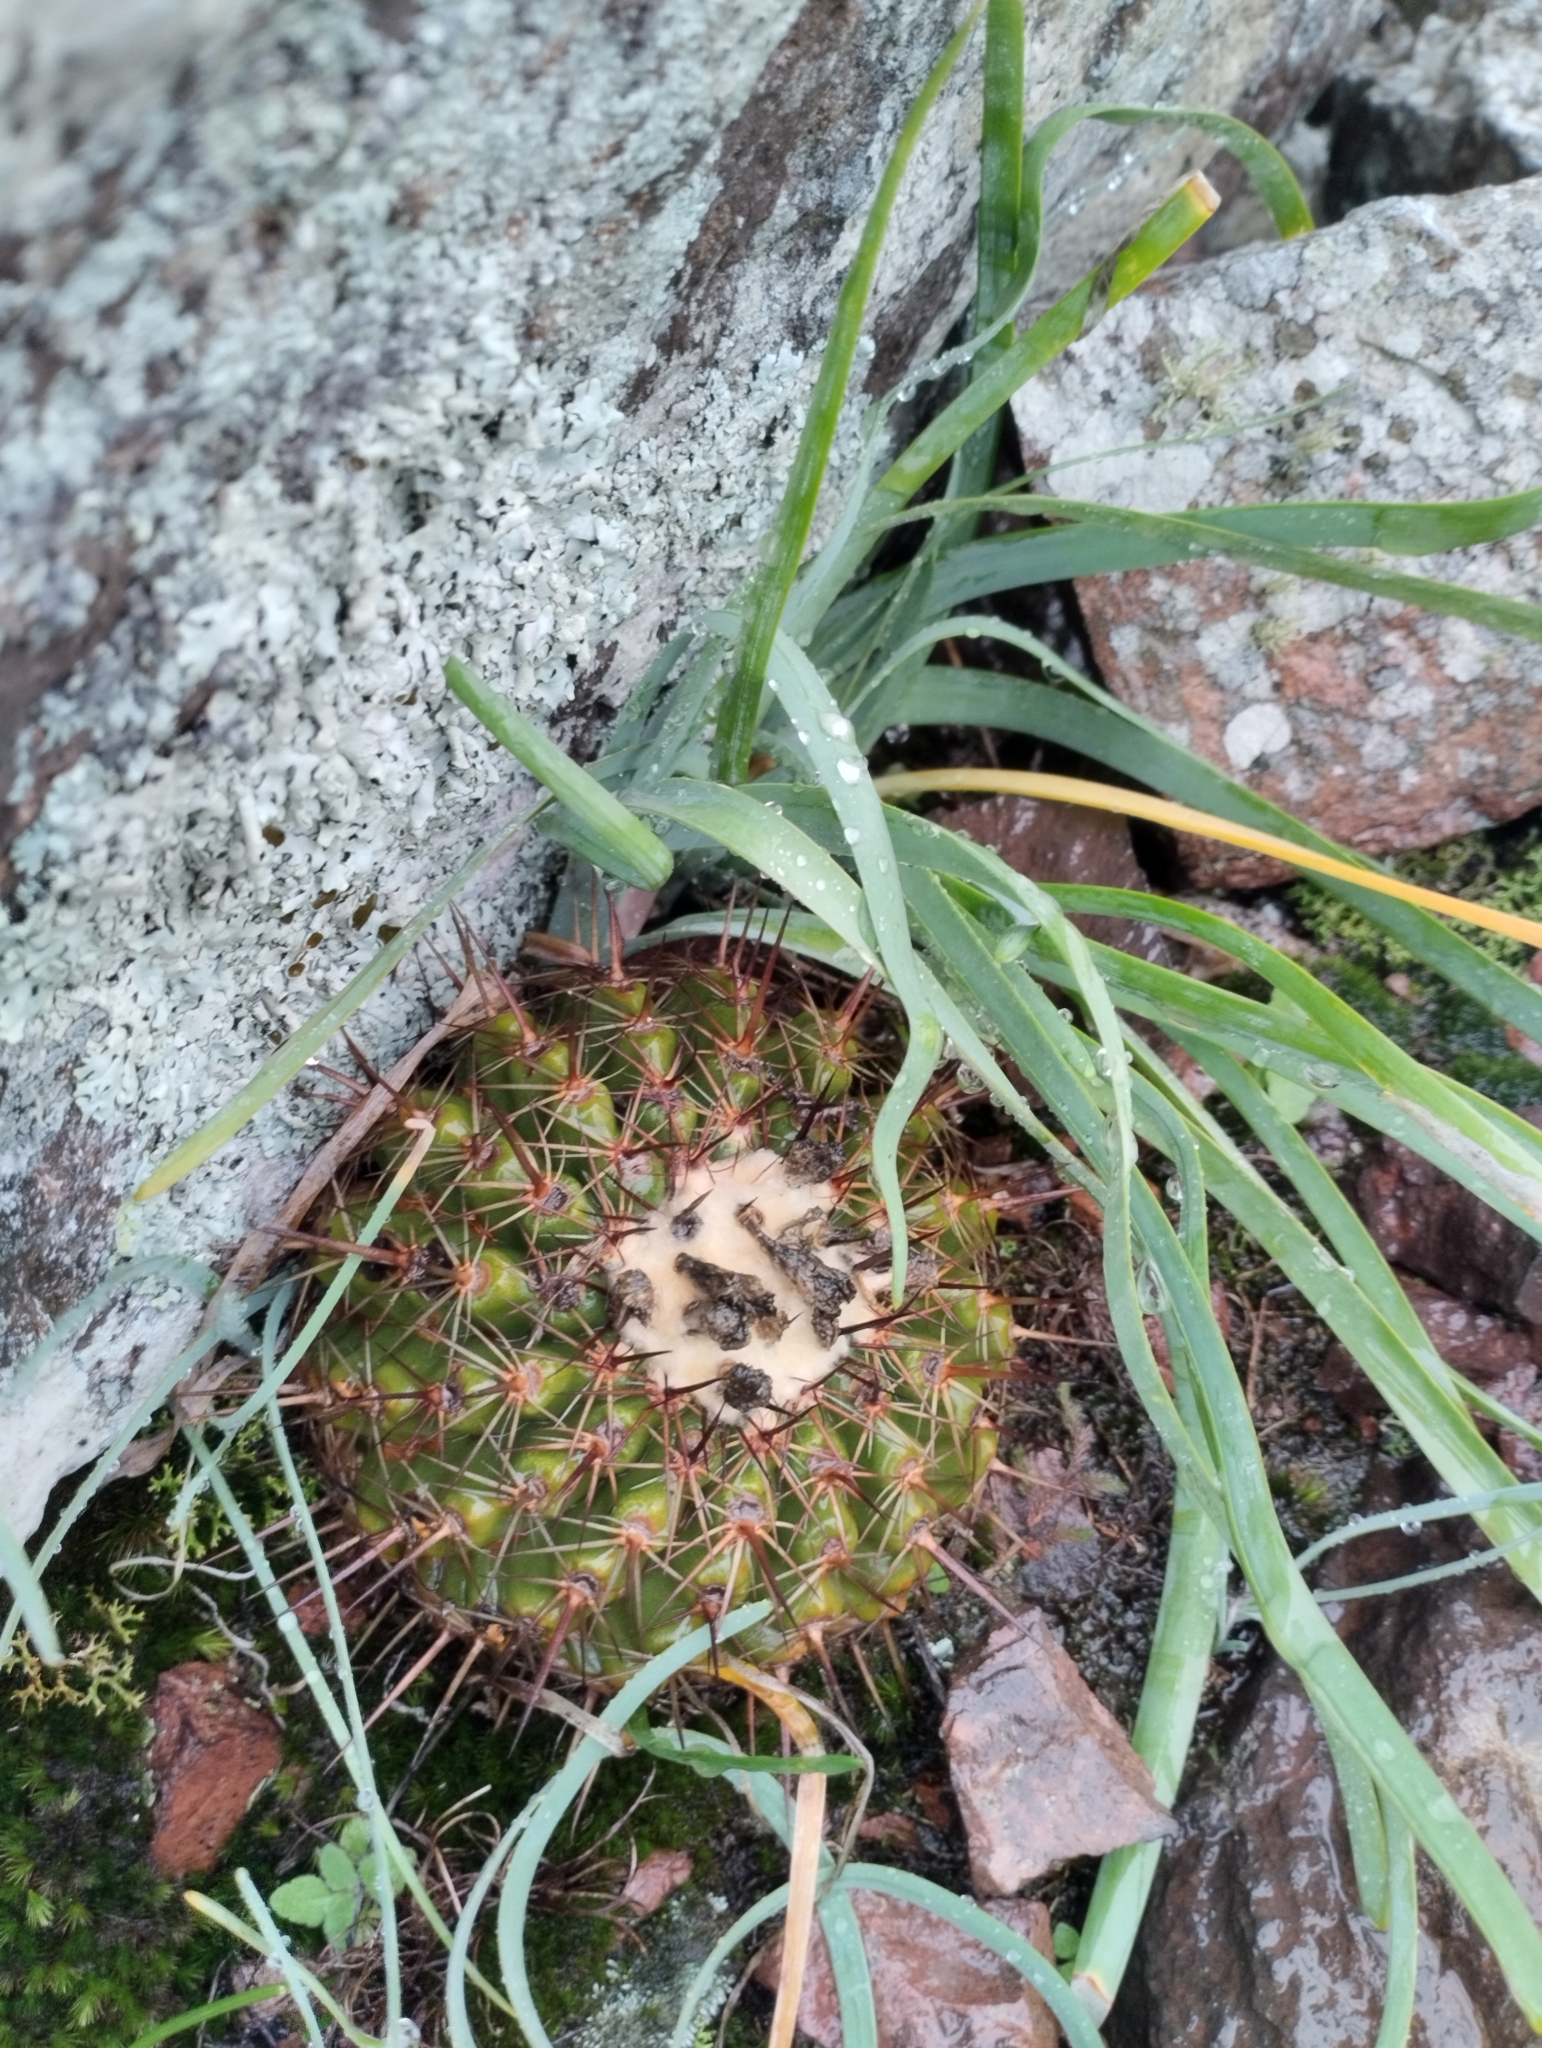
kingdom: Plantae
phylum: Tracheophyta
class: Magnoliopsida
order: Caryophyllales
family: Cactaceae
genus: Parodia
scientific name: Parodia mammulosa
